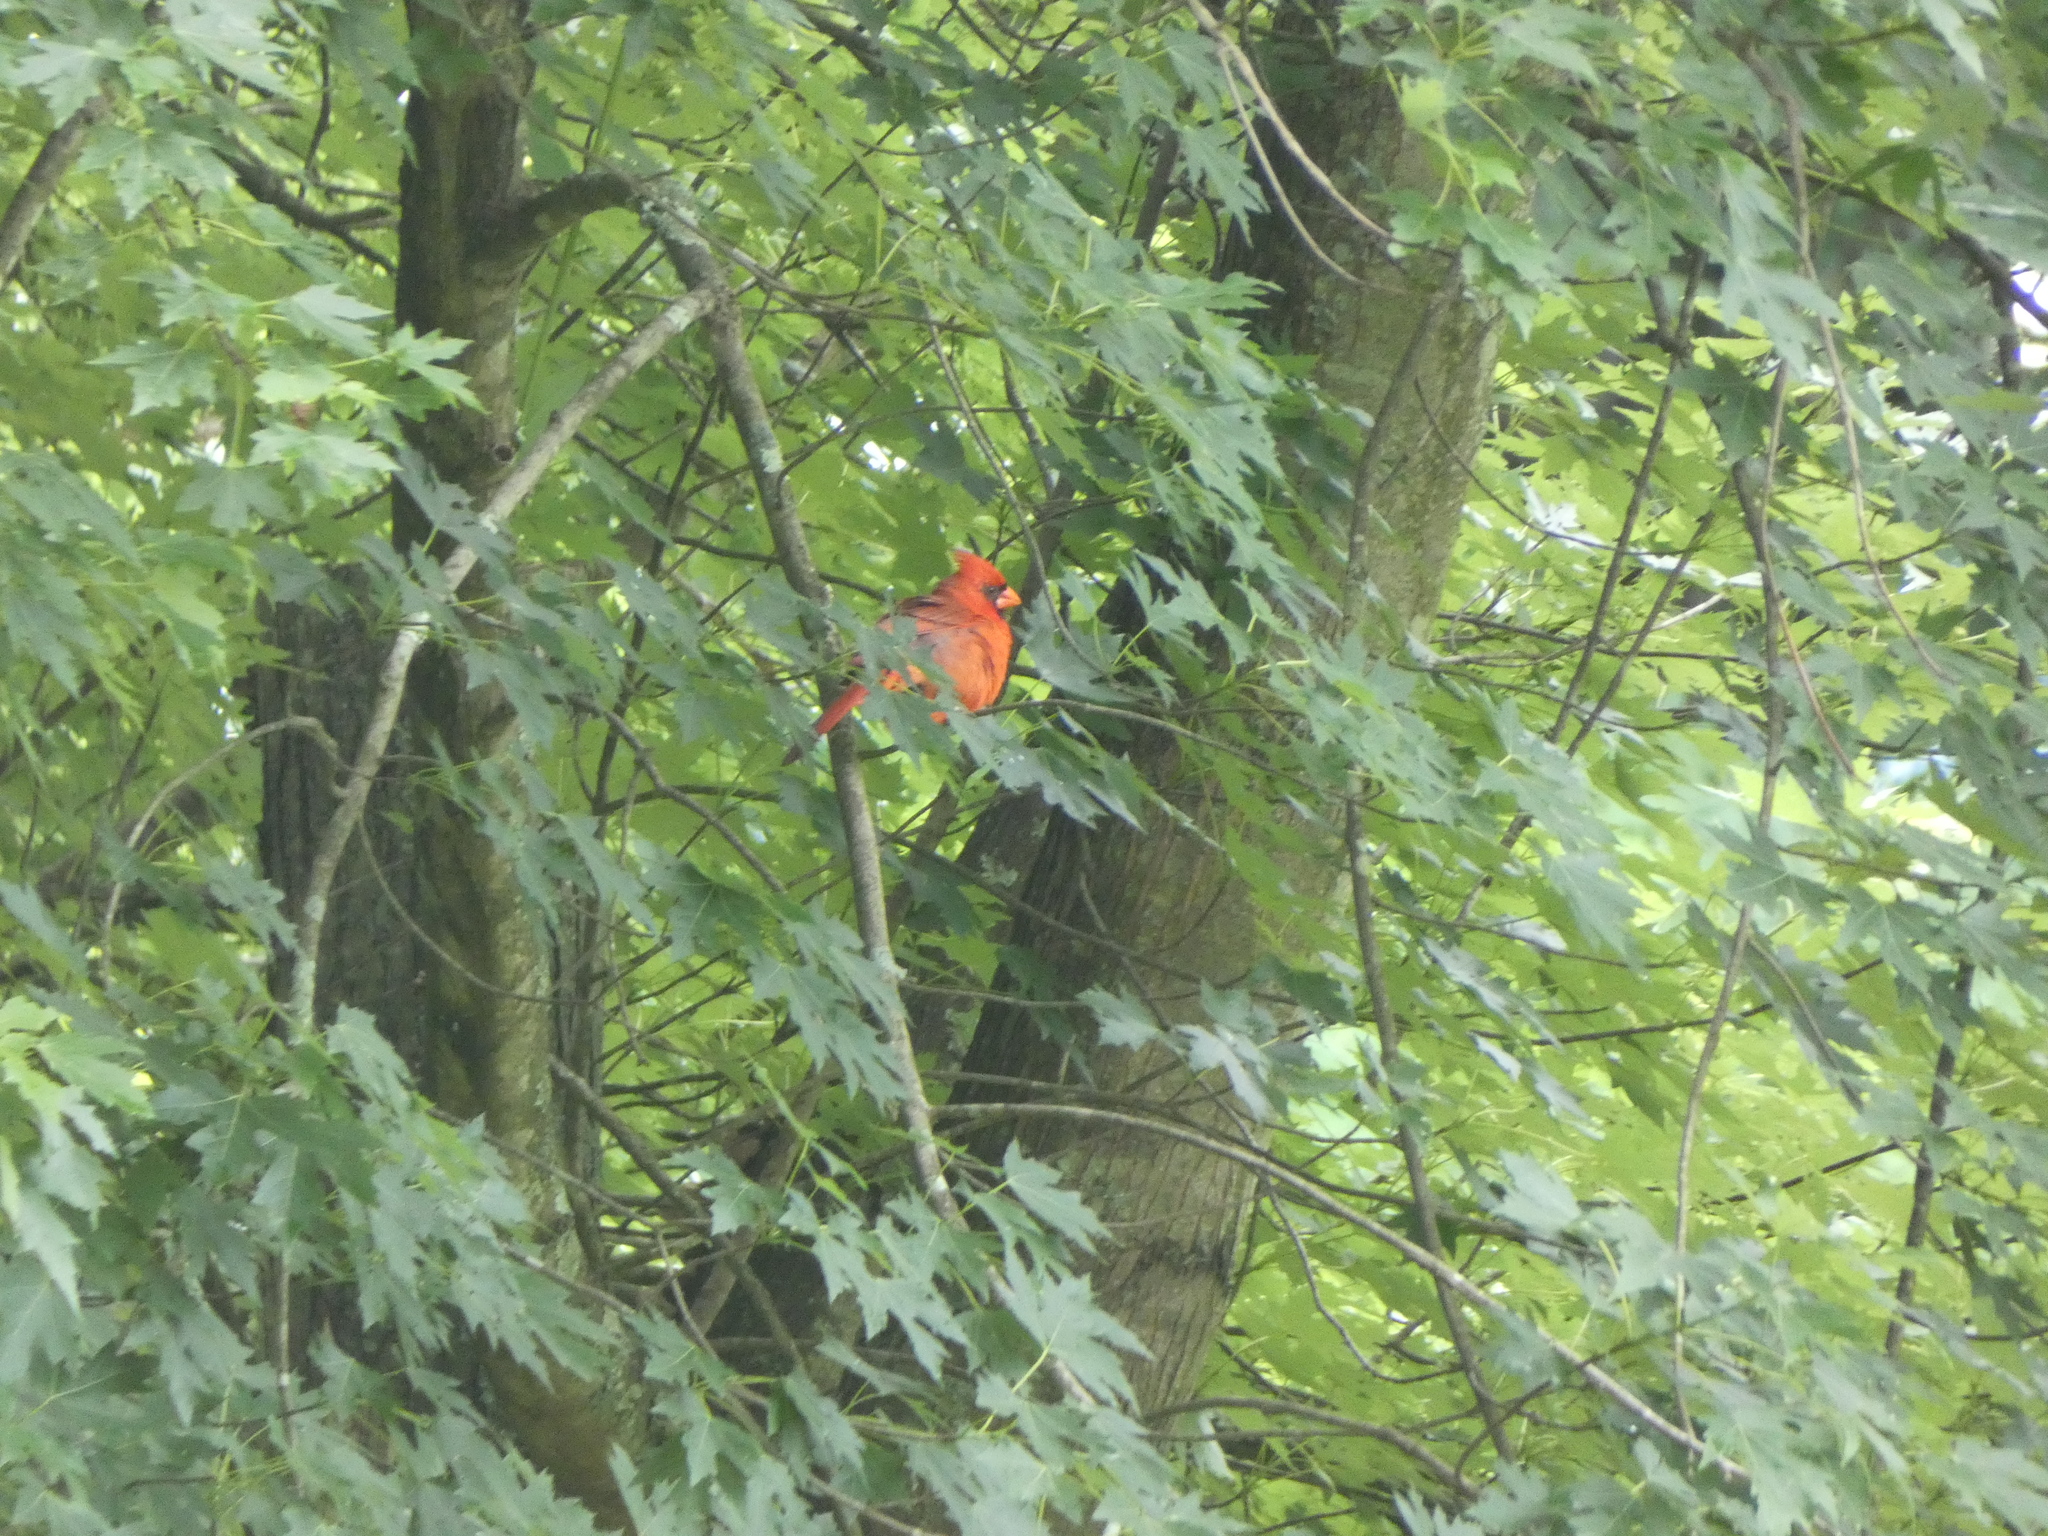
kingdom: Animalia
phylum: Chordata
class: Aves
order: Passeriformes
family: Cardinalidae
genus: Cardinalis
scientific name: Cardinalis cardinalis
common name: Northern cardinal
